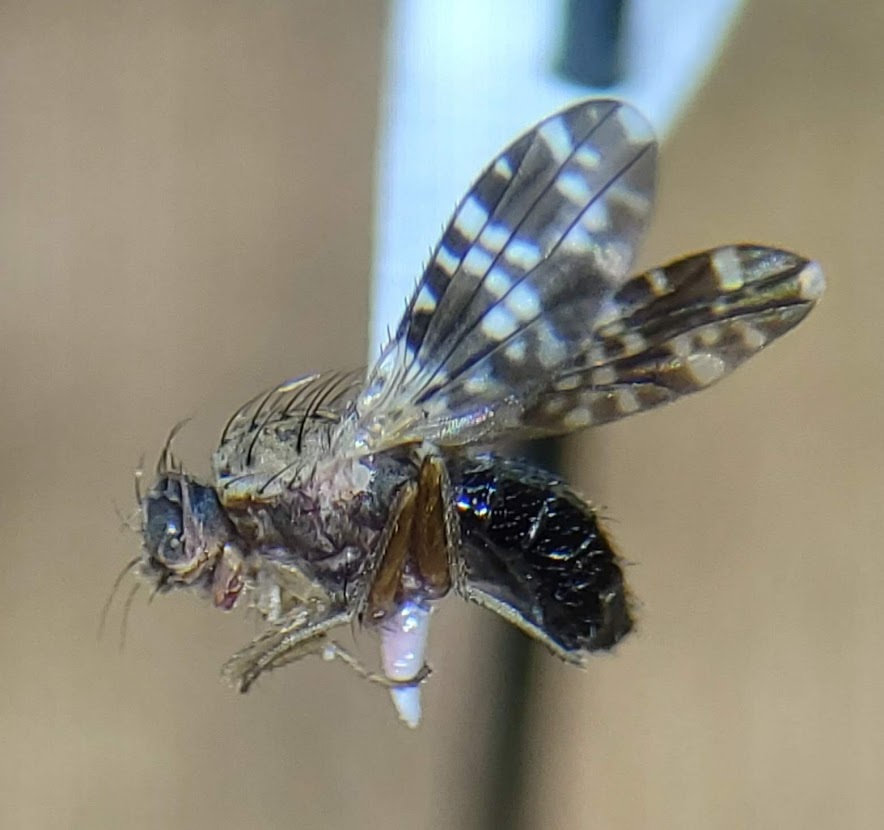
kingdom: Animalia
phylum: Arthropoda
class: Insecta
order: Diptera
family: Heleomyzidae
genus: Trixoscelis
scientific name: Trixoscelis polita
